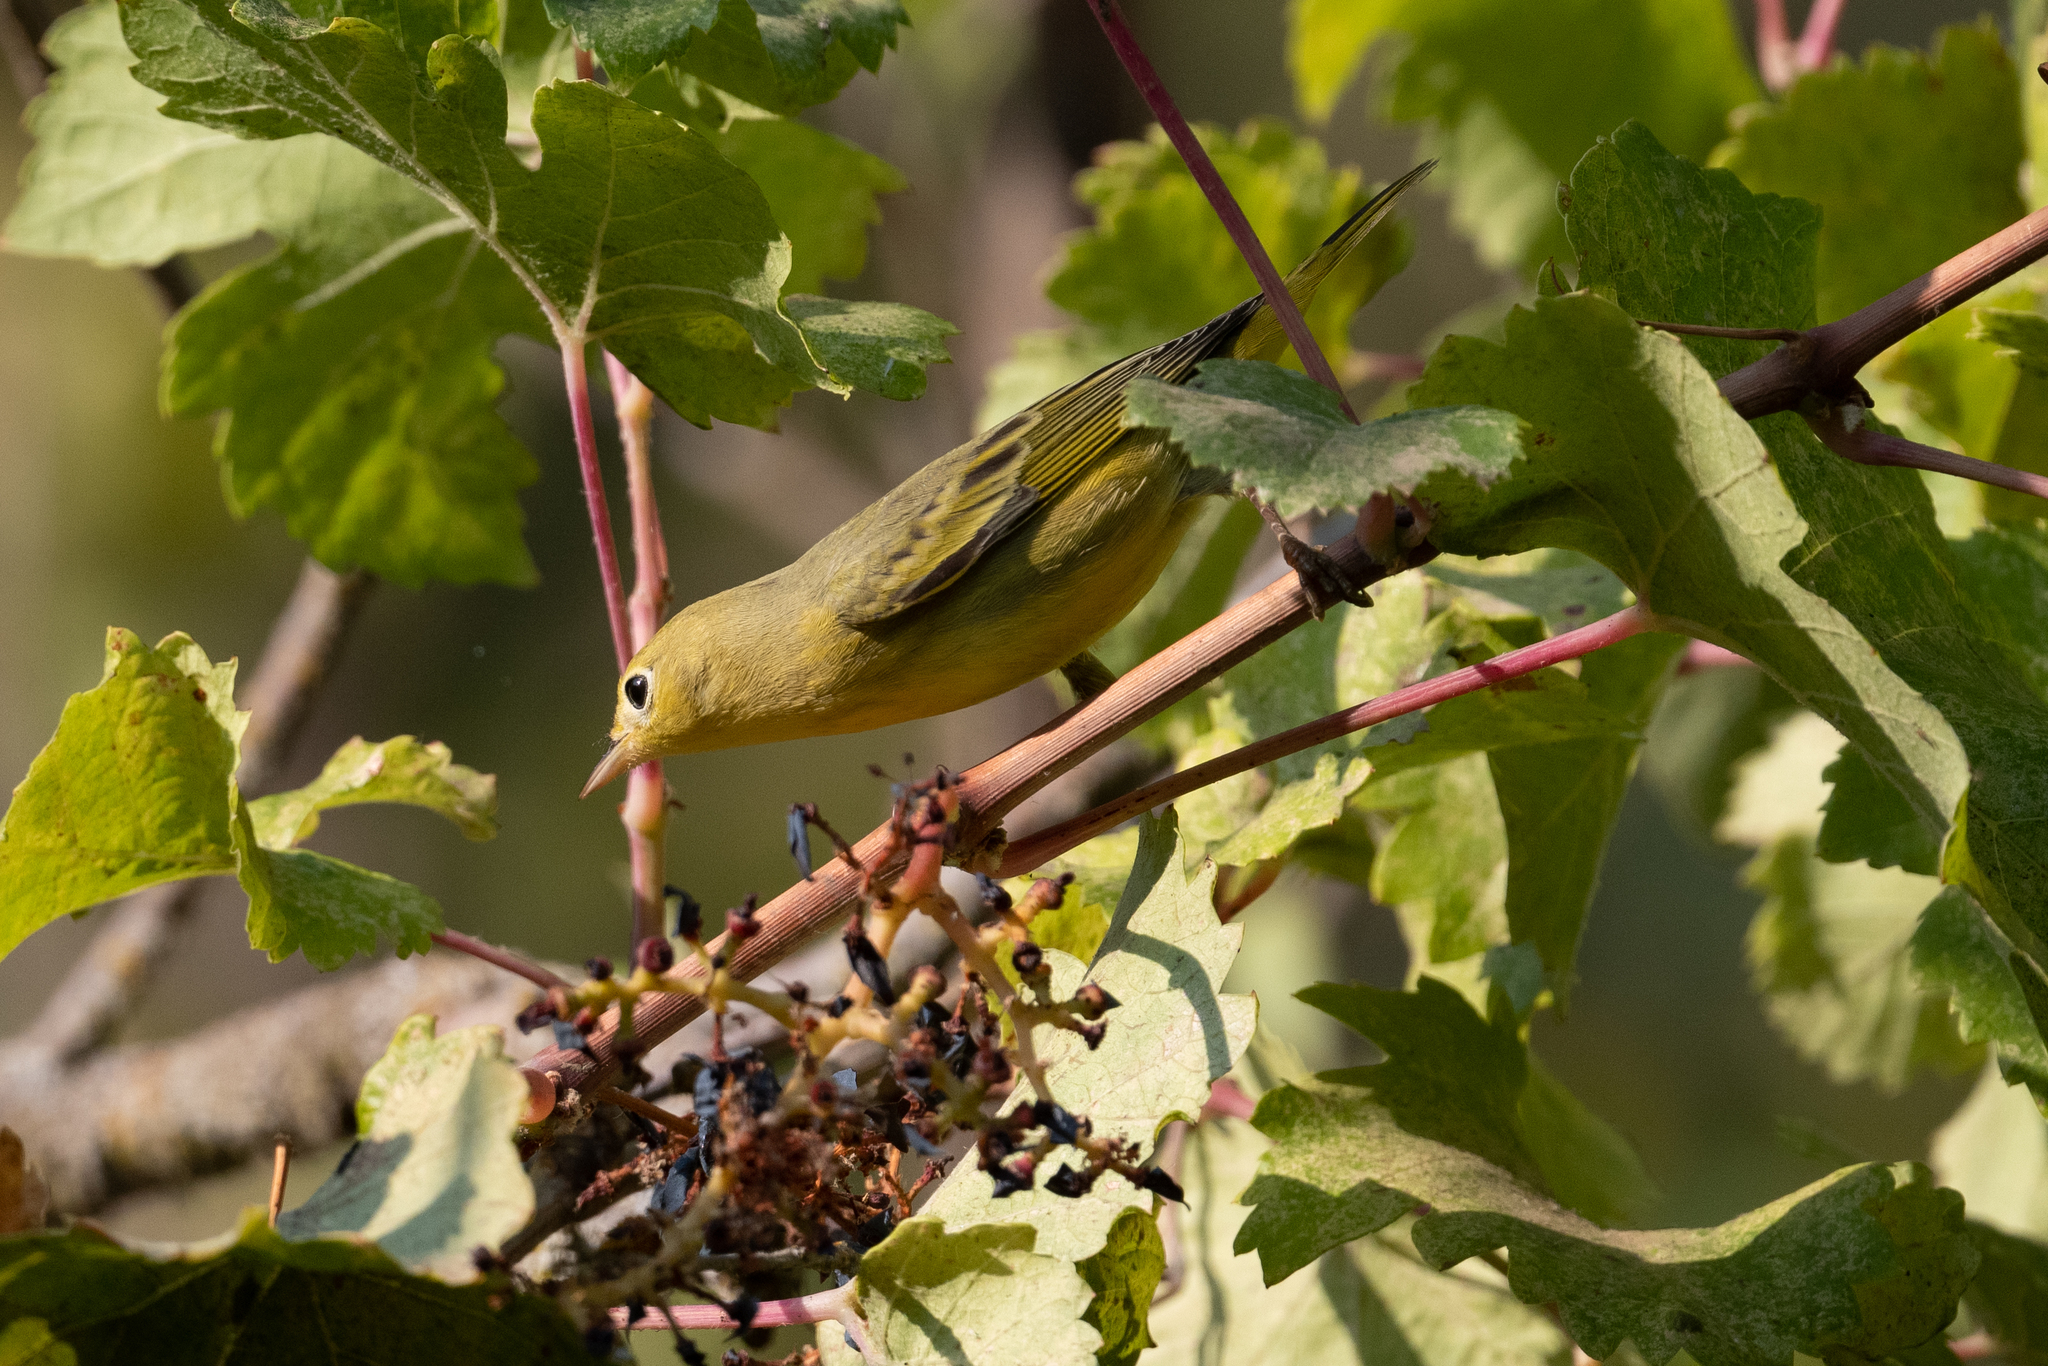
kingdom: Animalia
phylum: Chordata
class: Aves
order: Passeriformes
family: Parulidae
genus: Setophaga
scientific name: Setophaga petechia
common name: Yellow warbler
